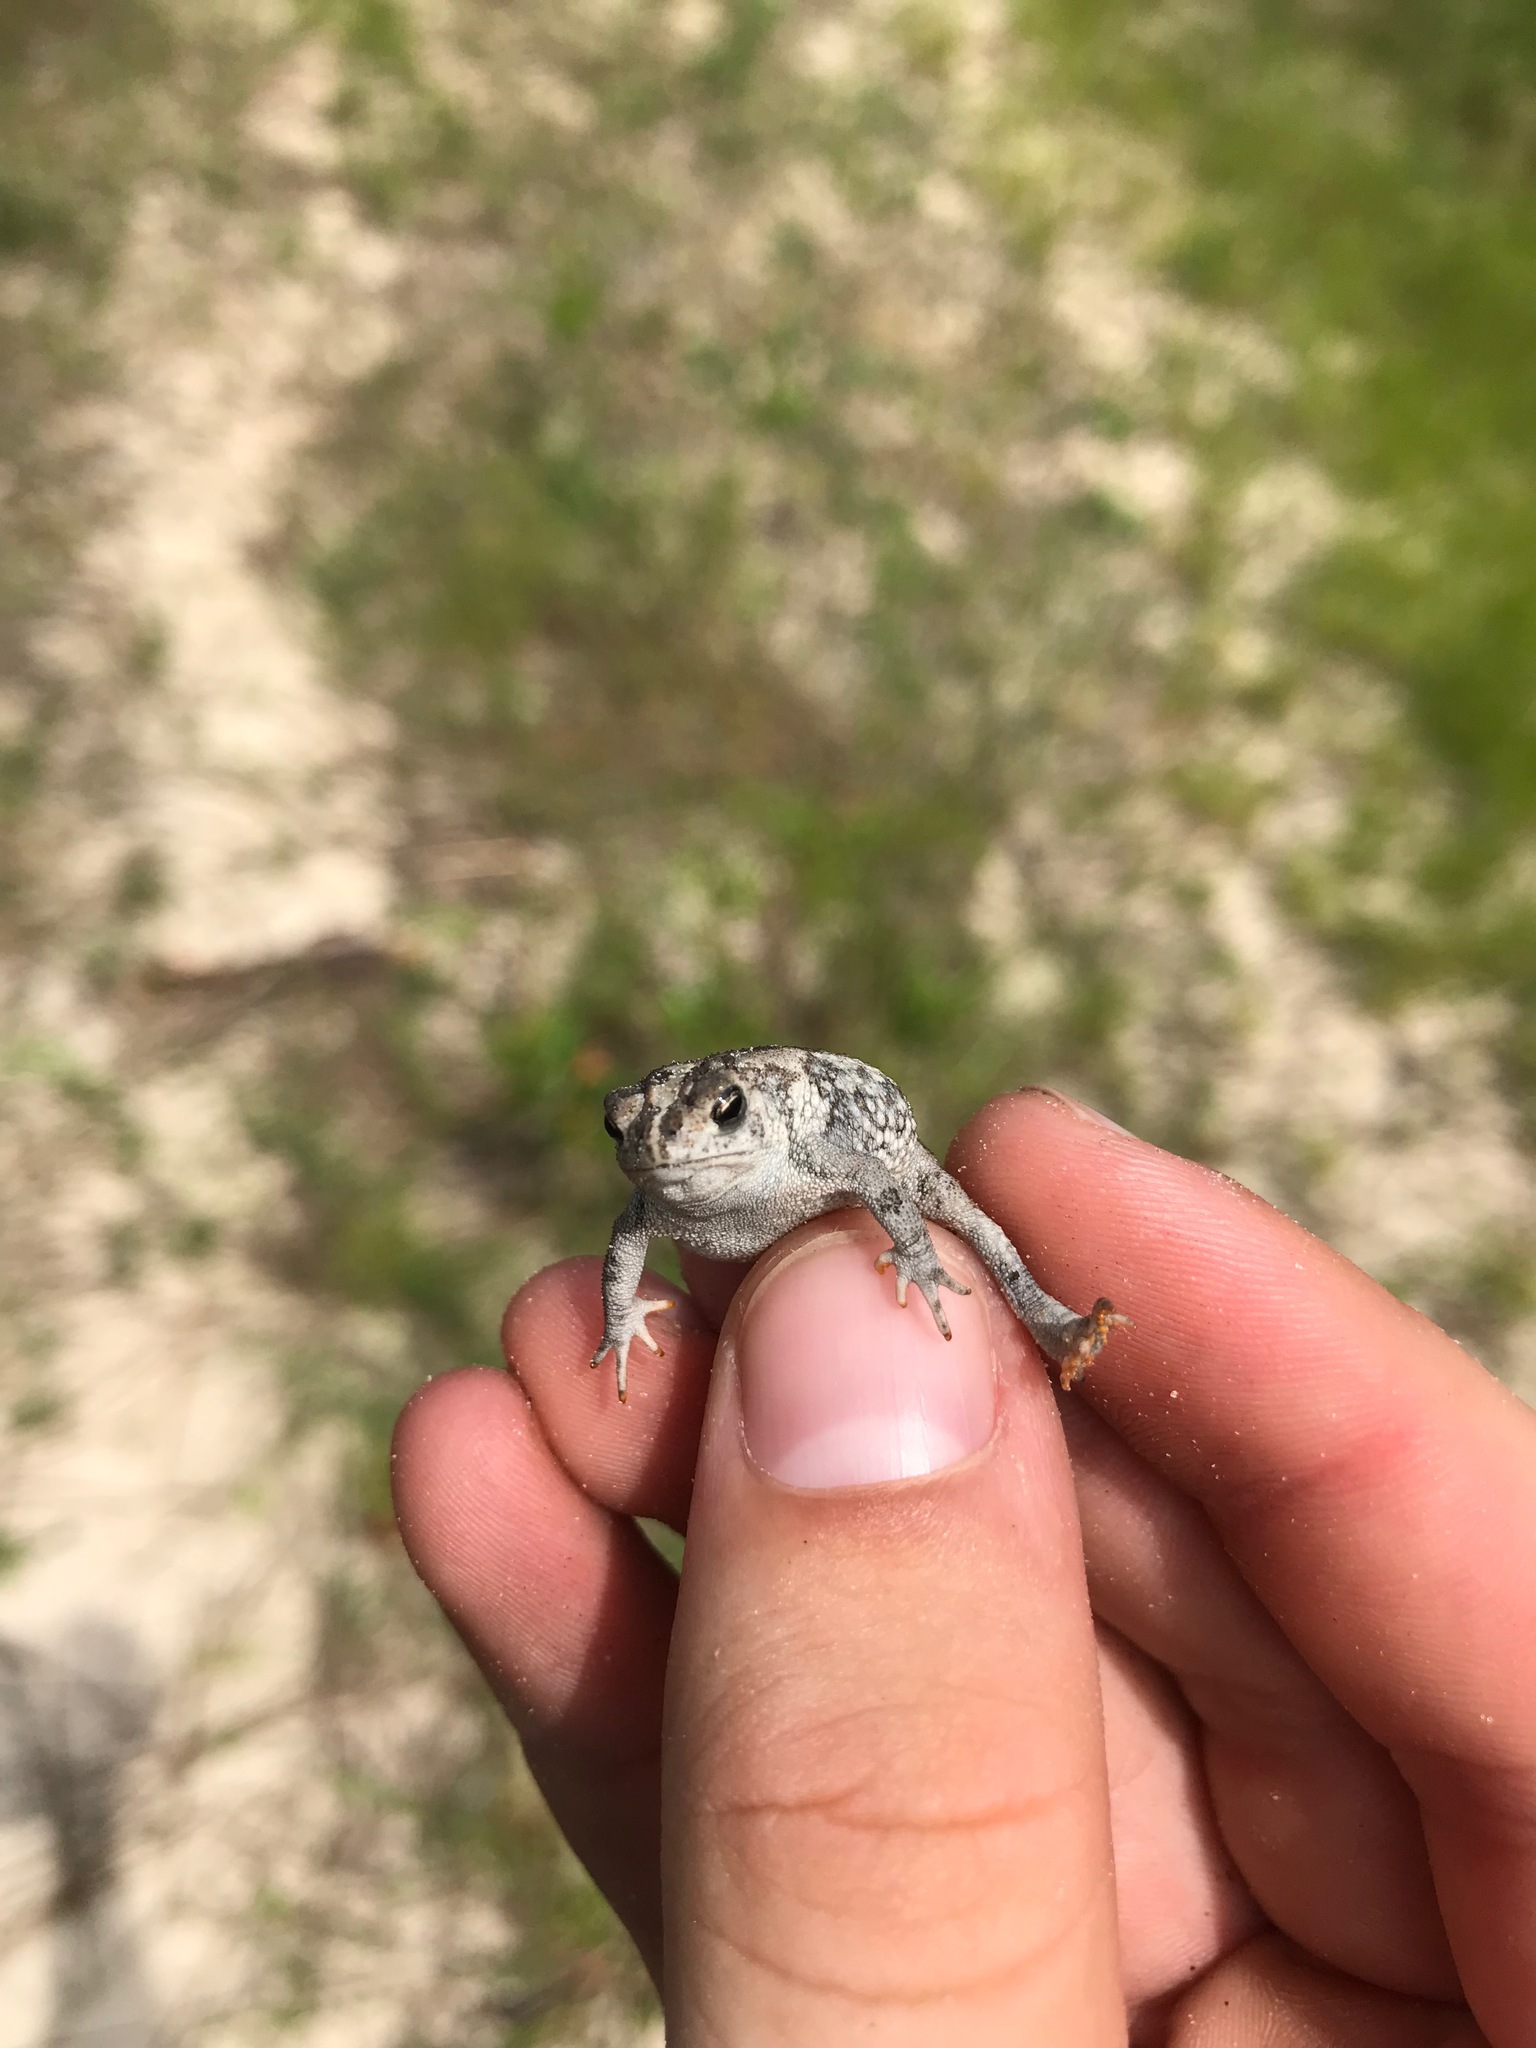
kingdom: Animalia
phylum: Chordata
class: Amphibia
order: Anura
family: Bufonidae
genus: Anaxyrus
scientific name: Anaxyrus quercicus
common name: Oak toad
